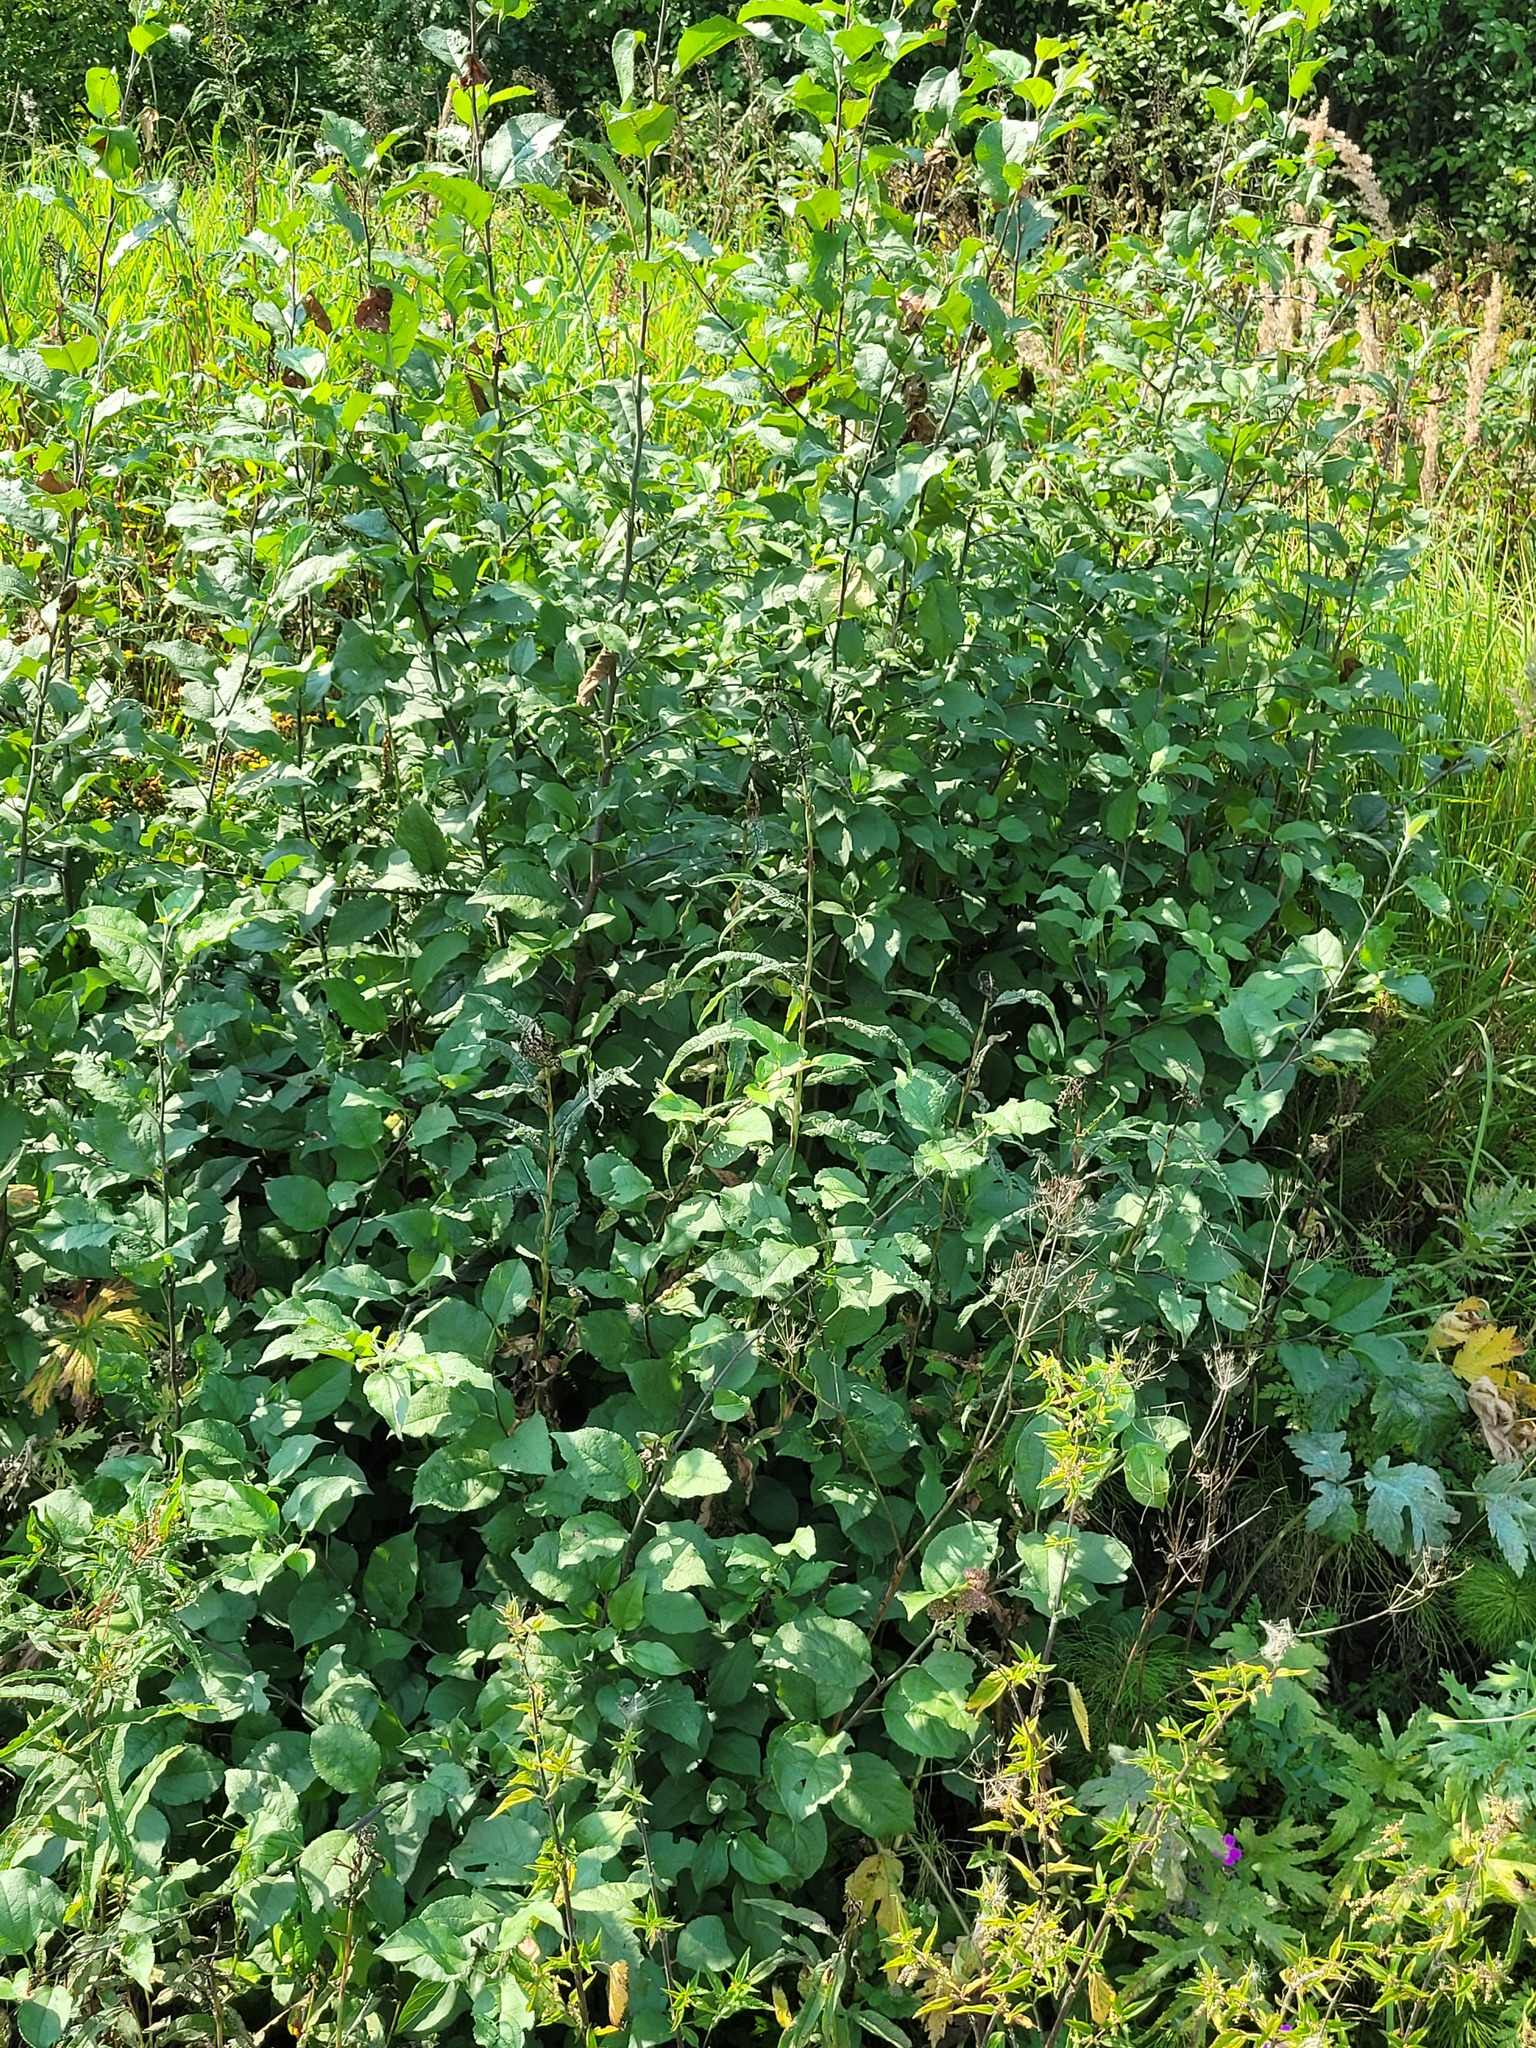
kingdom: Plantae
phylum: Tracheophyta
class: Magnoliopsida
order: Rosales
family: Rosaceae
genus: Malus
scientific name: Malus domestica
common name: Apple
